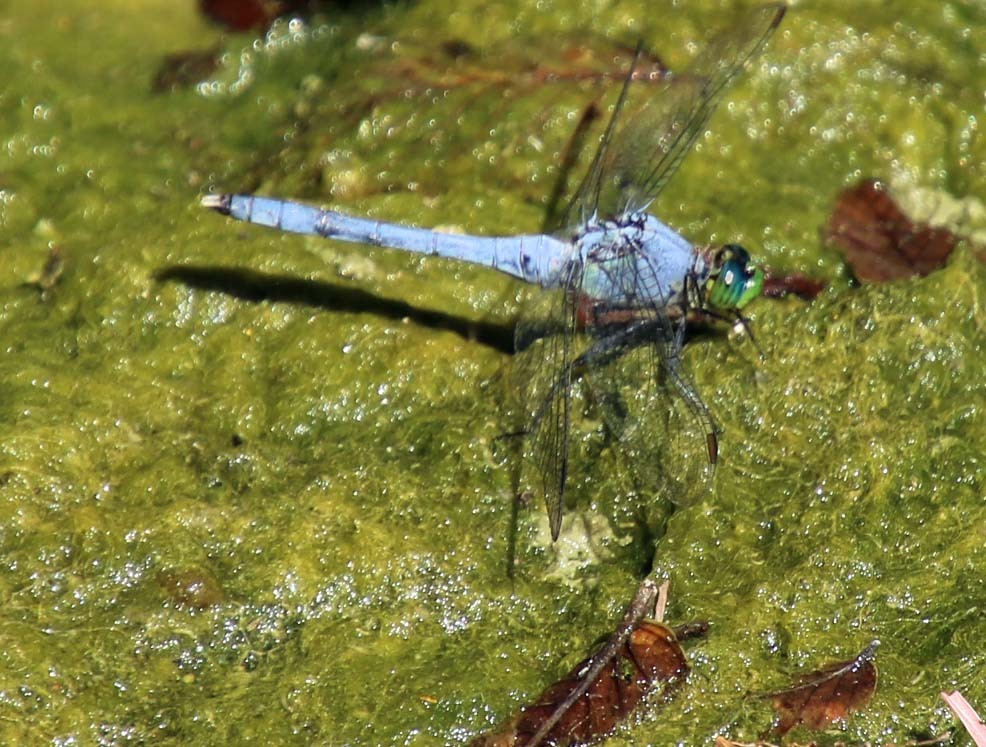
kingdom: Animalia
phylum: Arthropoda
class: Insecta
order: Odonata
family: Libellulidae
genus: Erythemis
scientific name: Erythemis simplicicollis
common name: Eastern pondhawk
